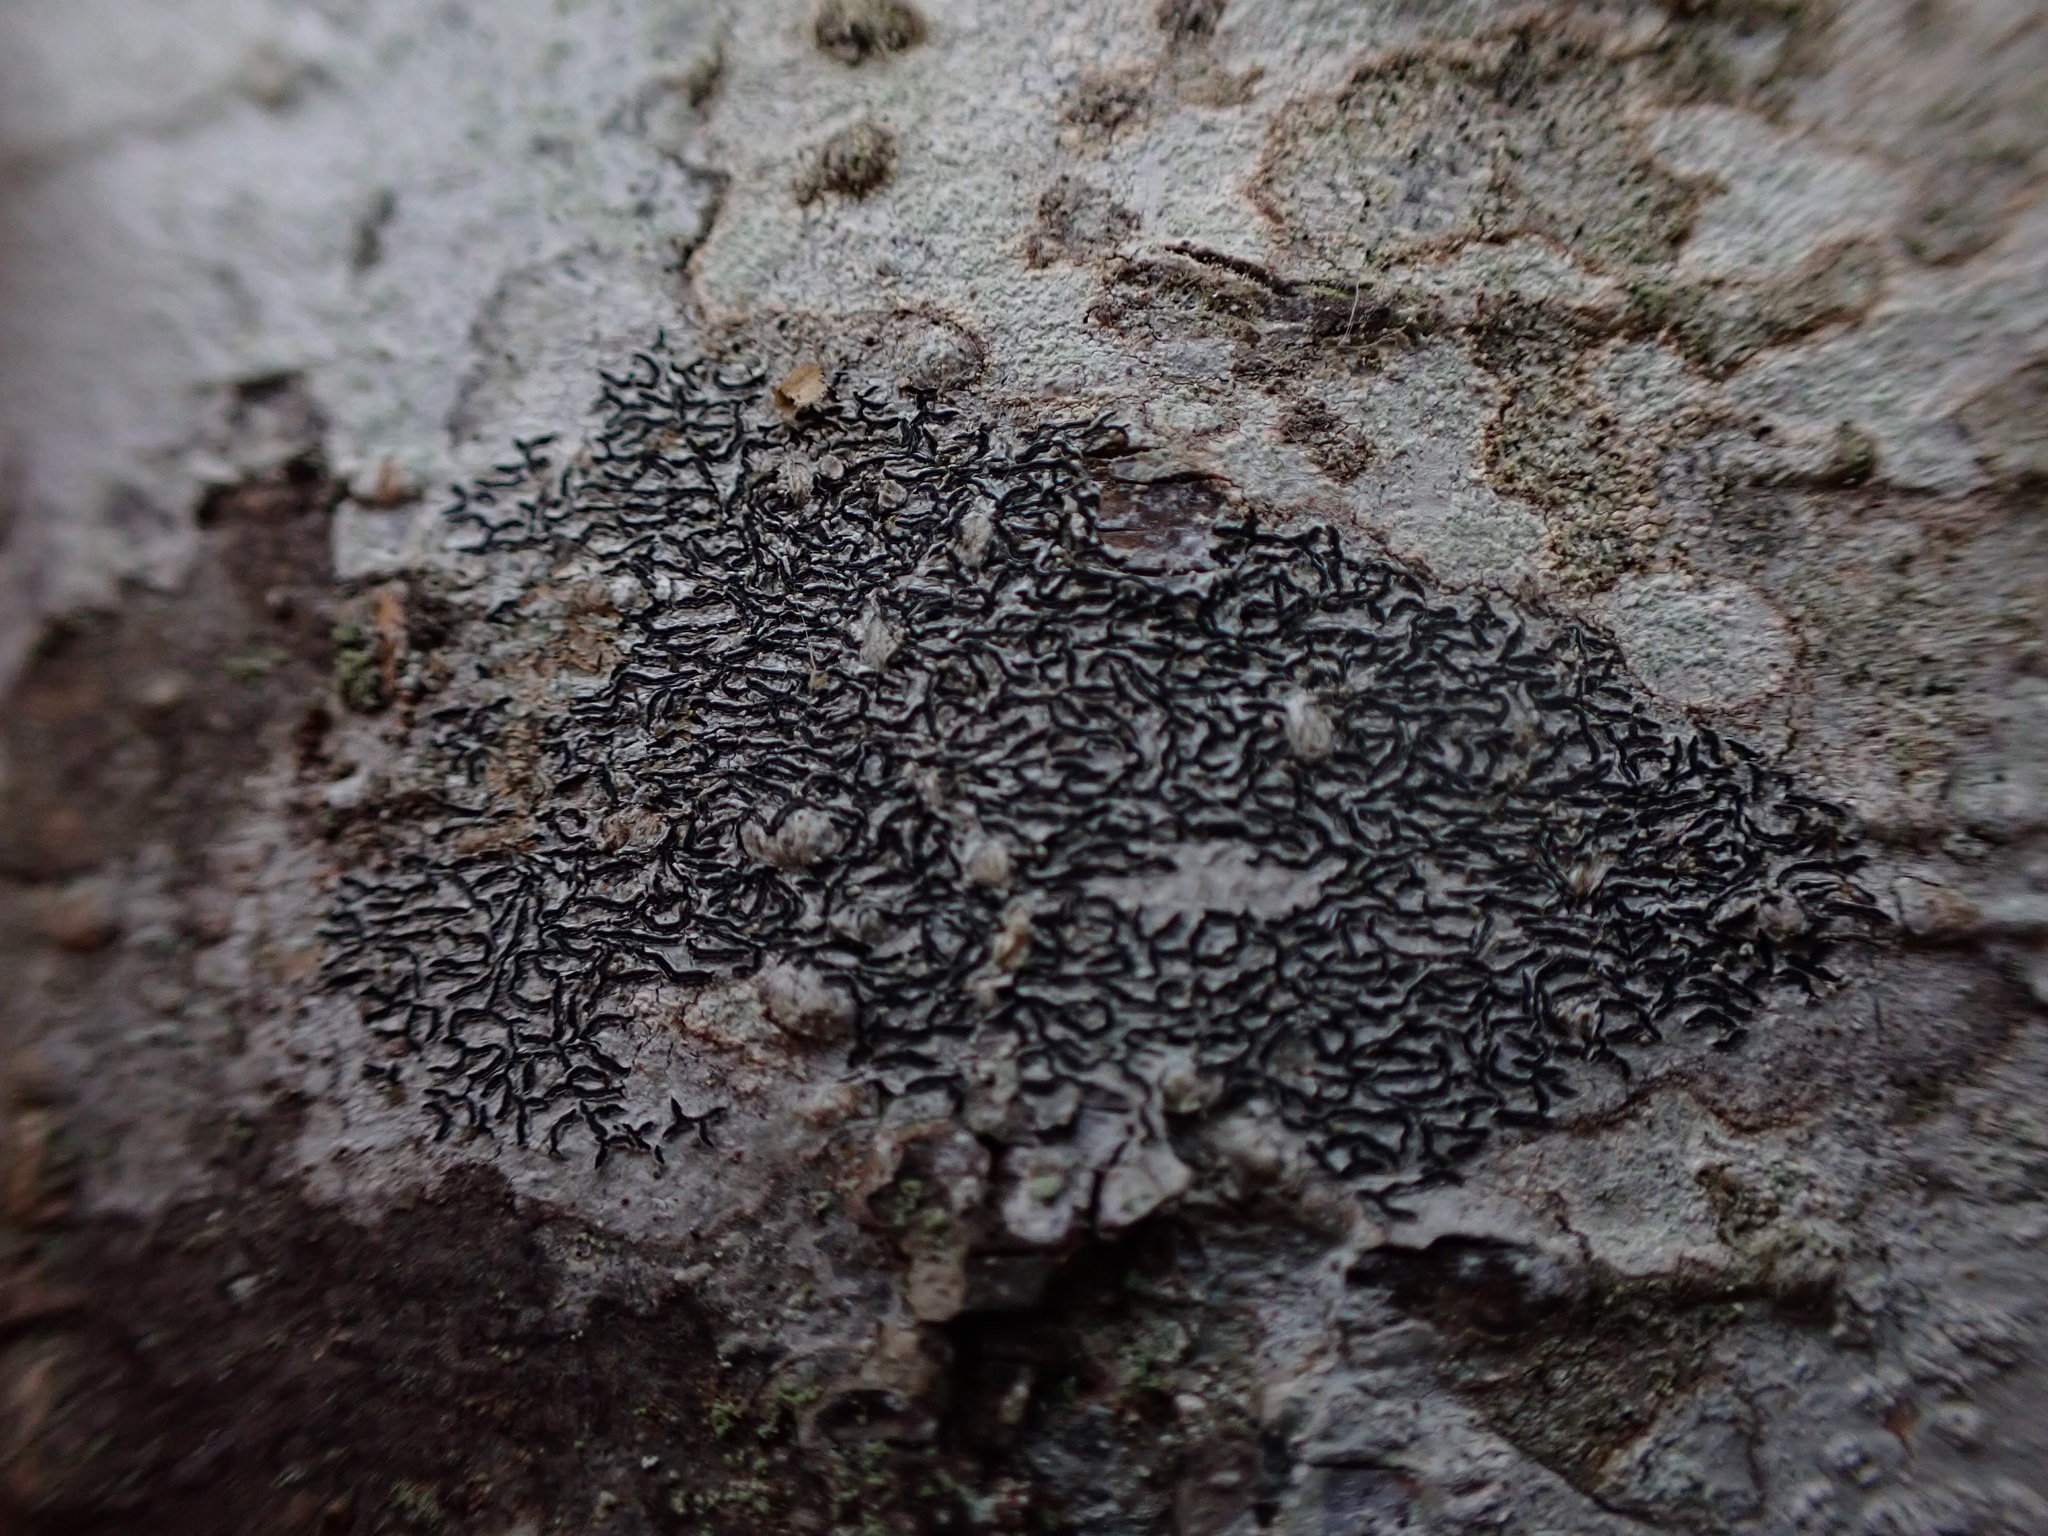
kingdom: Fungi
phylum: Ascomycota
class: Lecanoromycetes
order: Ostropales
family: Graphidaceae
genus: Graphis
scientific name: Graphis scripta
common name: Script lichen
